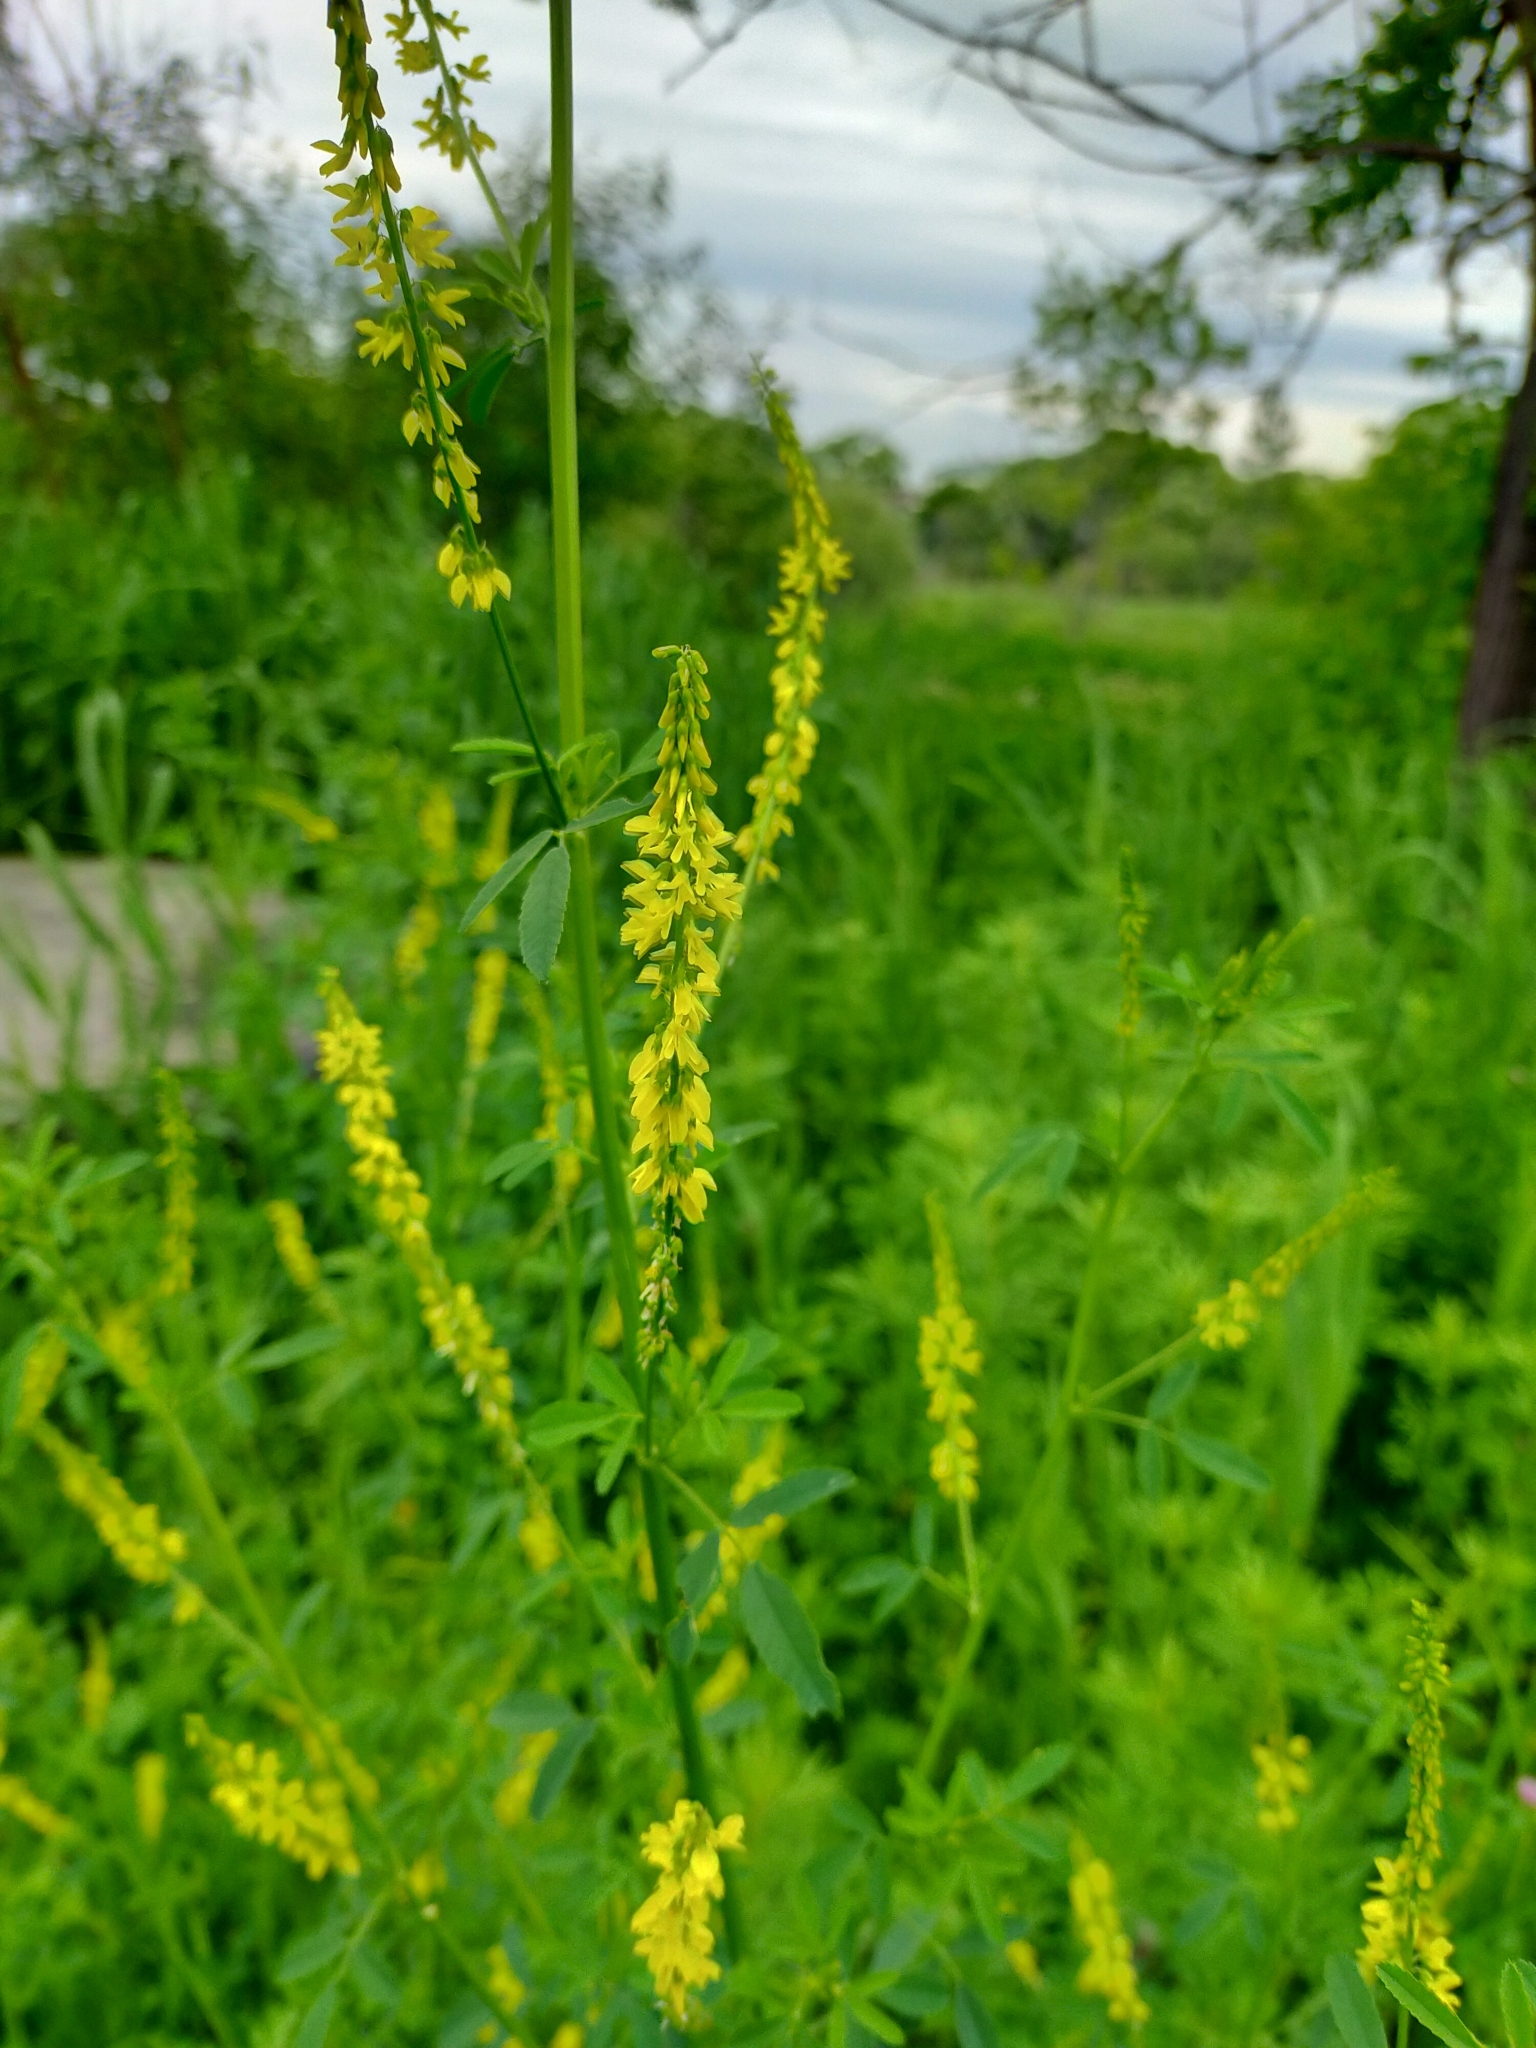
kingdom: Plantae
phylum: Tracheophyta
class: Magnoliopsida
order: Fabales
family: Fabaceae
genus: Melilotus
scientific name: Melilotus officinalis
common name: Sweetclover
